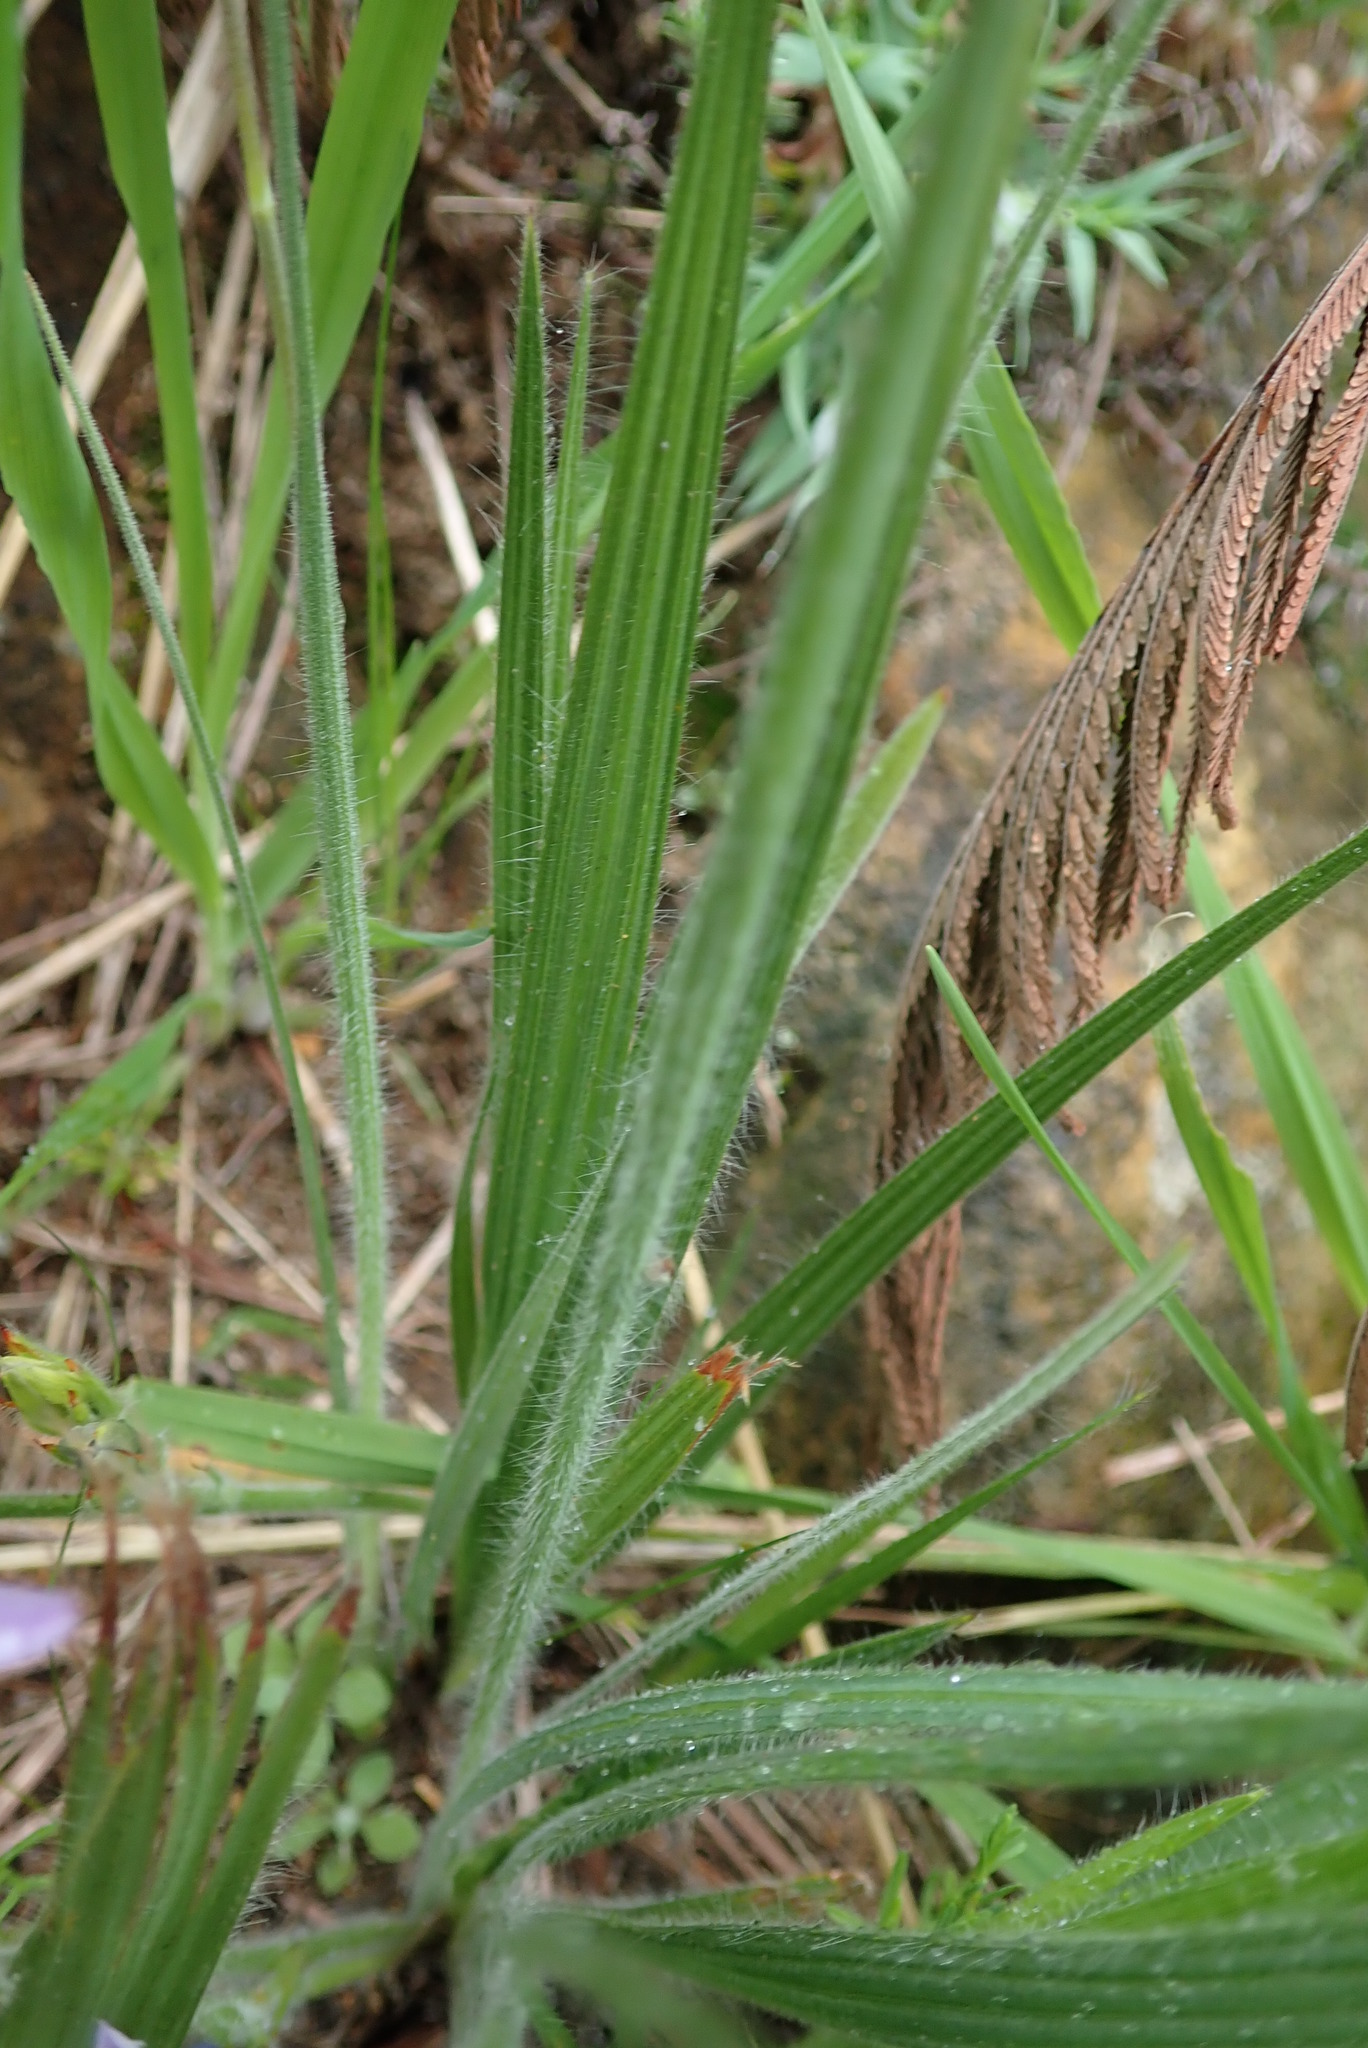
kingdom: Plantae
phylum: Tracheophyta
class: Liliopsida
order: Asparagales
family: Iridaceae
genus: Babiana
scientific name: Babiana fragrans
